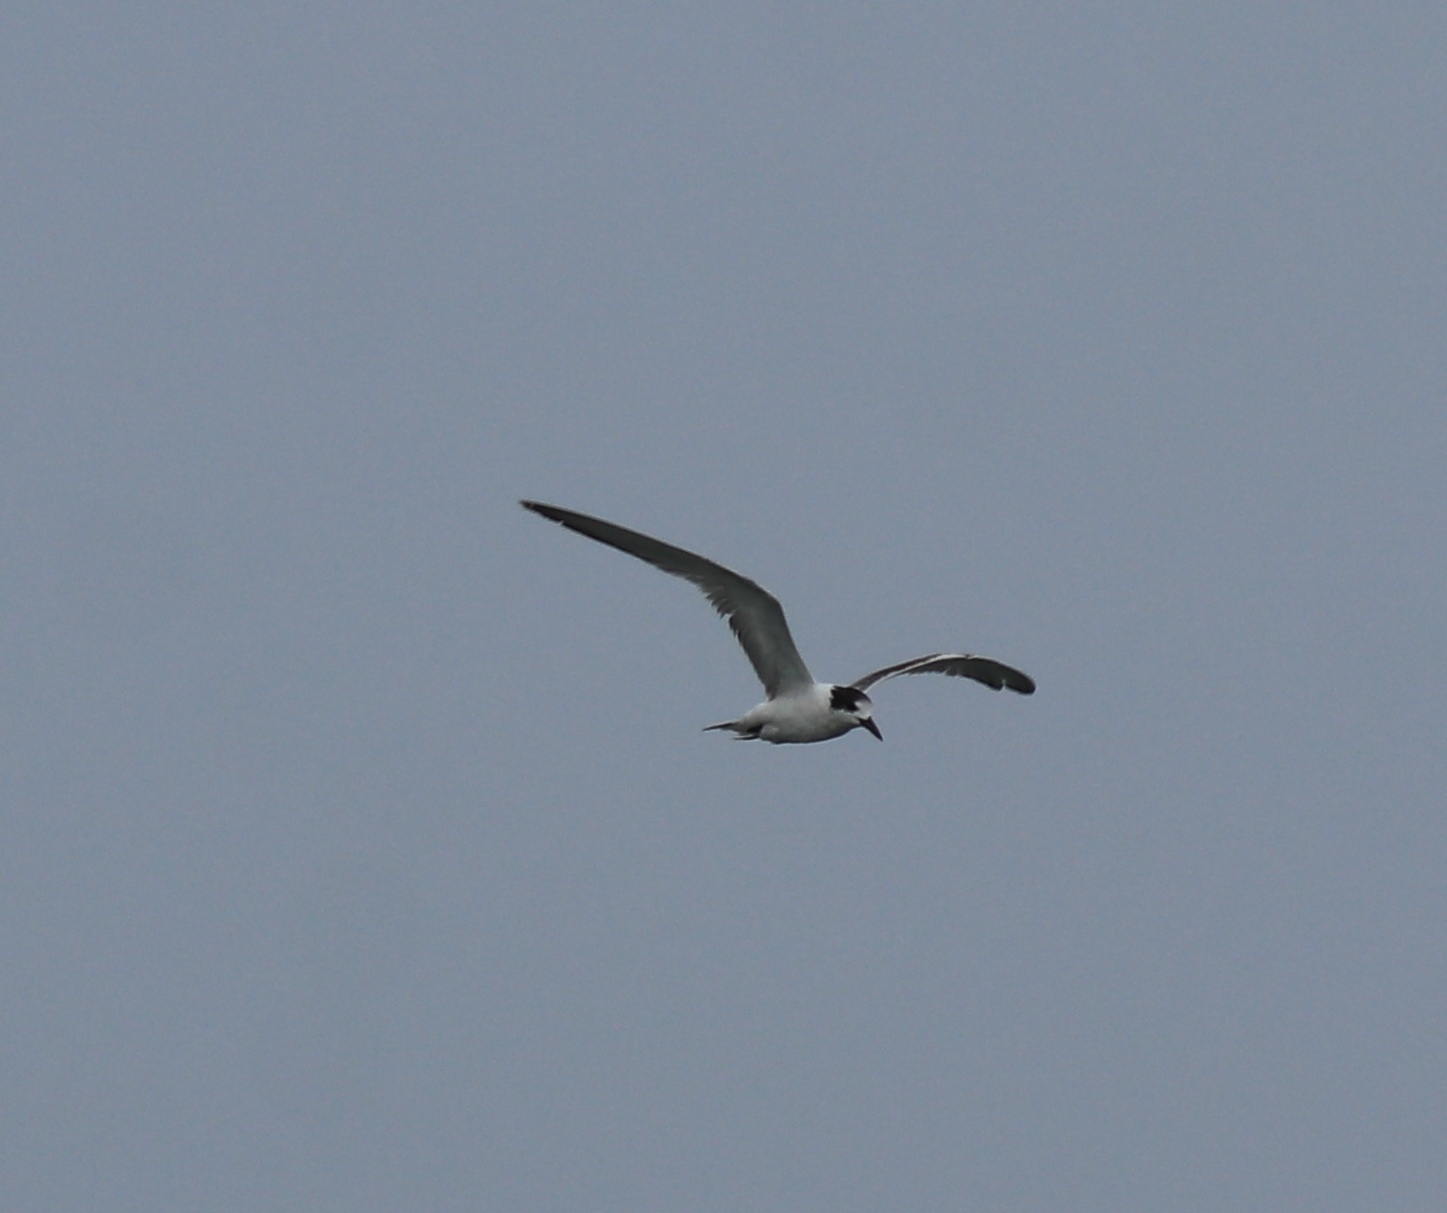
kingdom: Animalia
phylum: Chordata
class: Aves
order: Charadriiformes
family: Laridae
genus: Sterna
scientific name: Sterna hirundo
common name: Common tern
